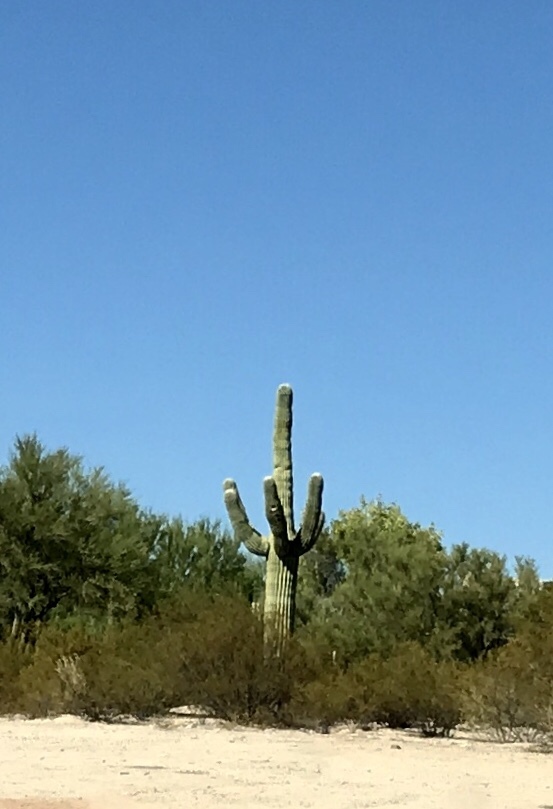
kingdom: Plantae
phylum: Tracheophyta
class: Magnoliopsida
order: Caryophyllales
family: Cactaceae
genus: Carnegiea
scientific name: Carnegiea gigantea
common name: Saguaro
